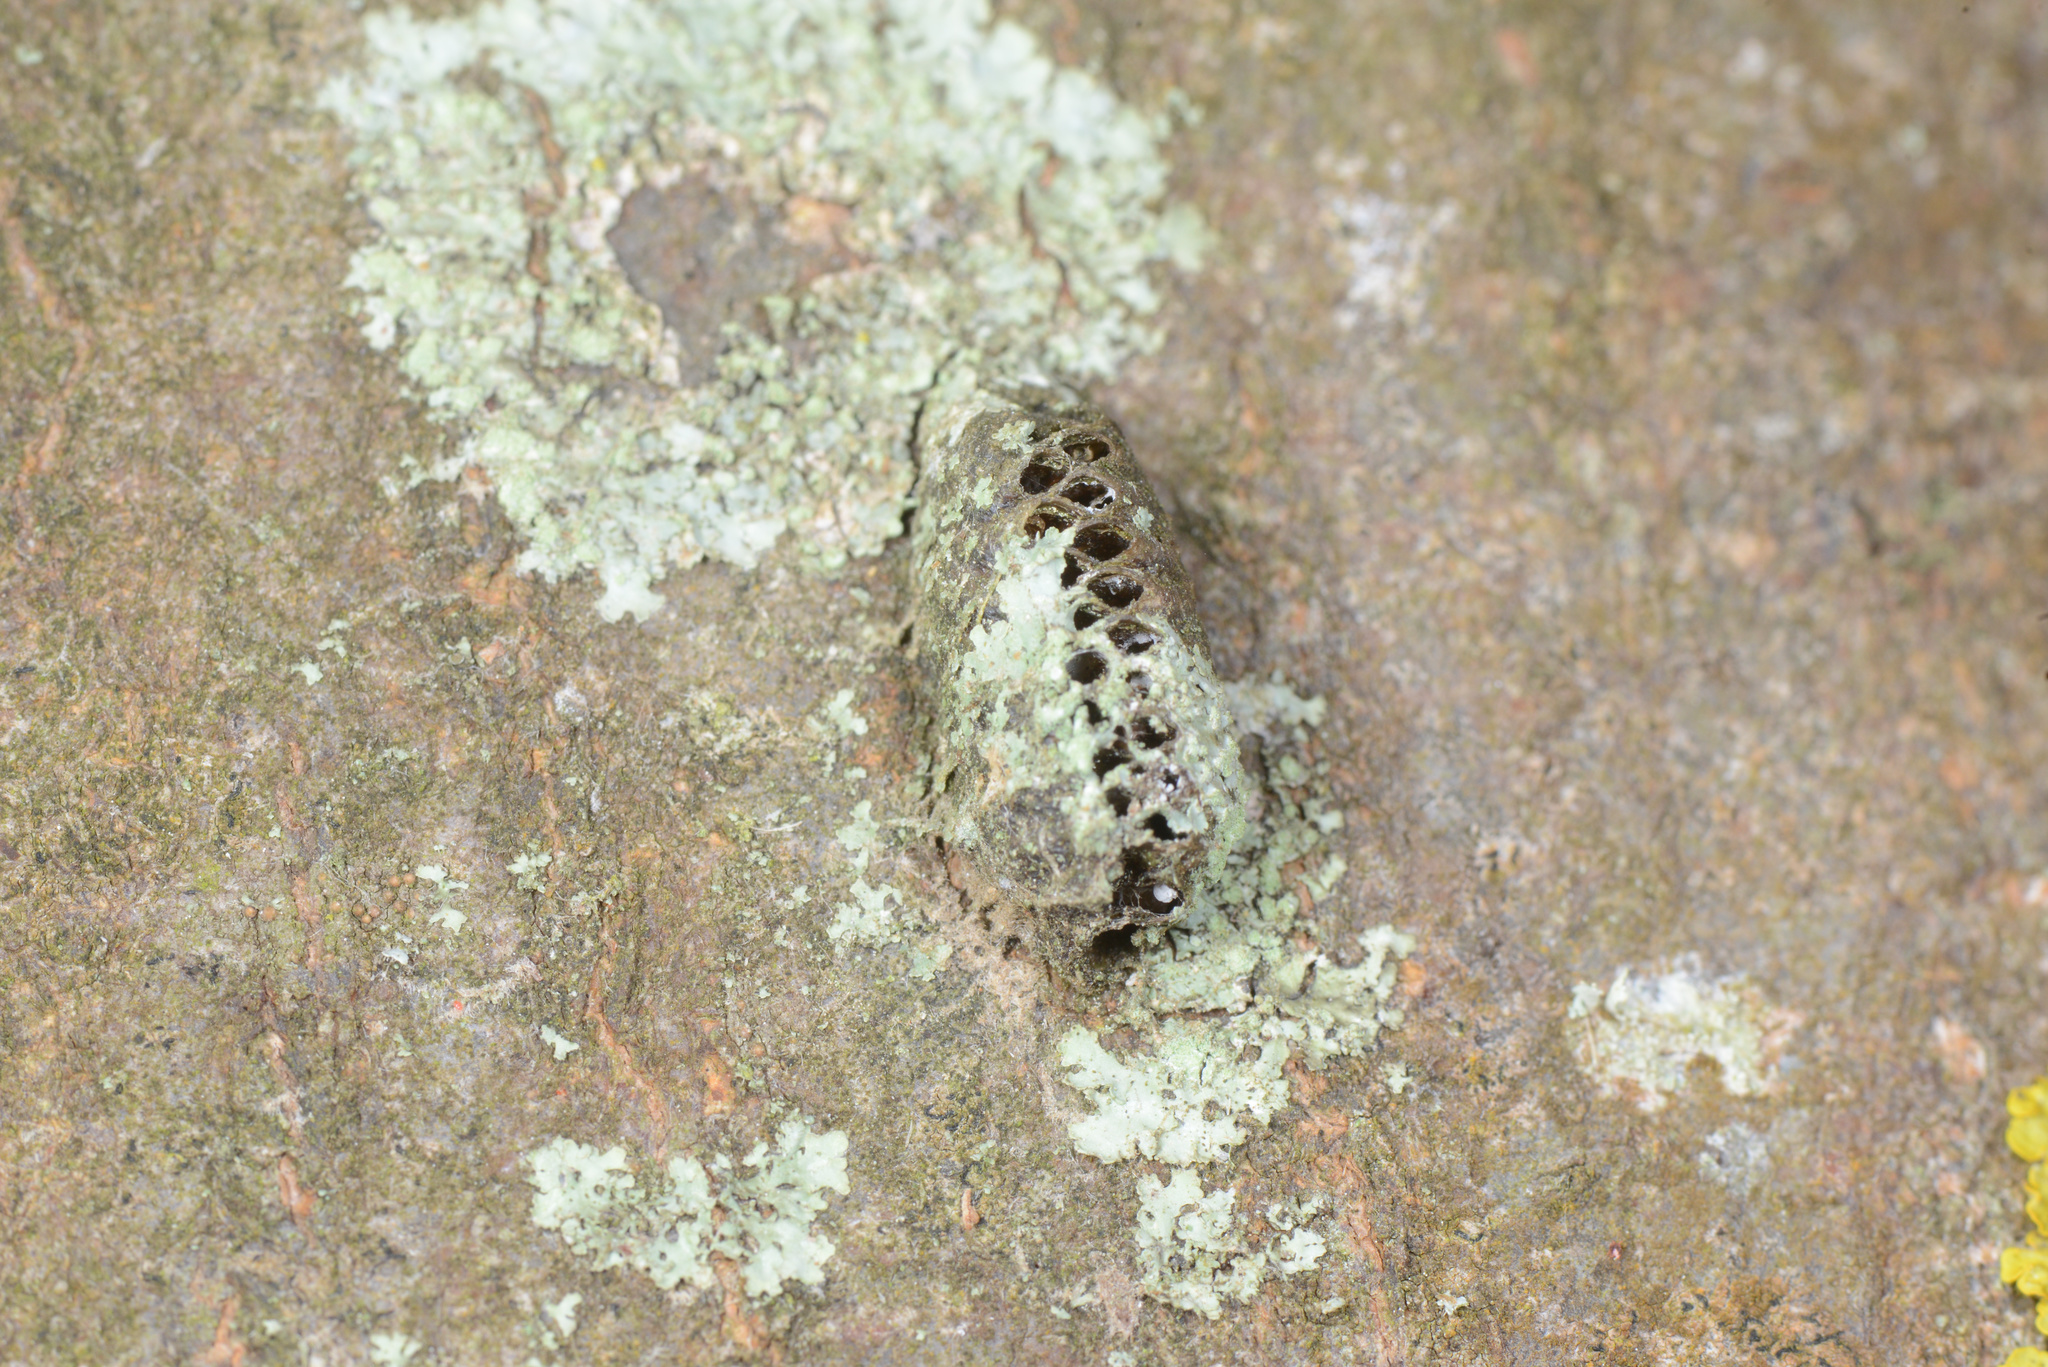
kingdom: Animalia
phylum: Arthropoda
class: Insecta
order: Mantodea
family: Mantidae
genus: Orthodera
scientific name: Orthodera novaezealandiae
